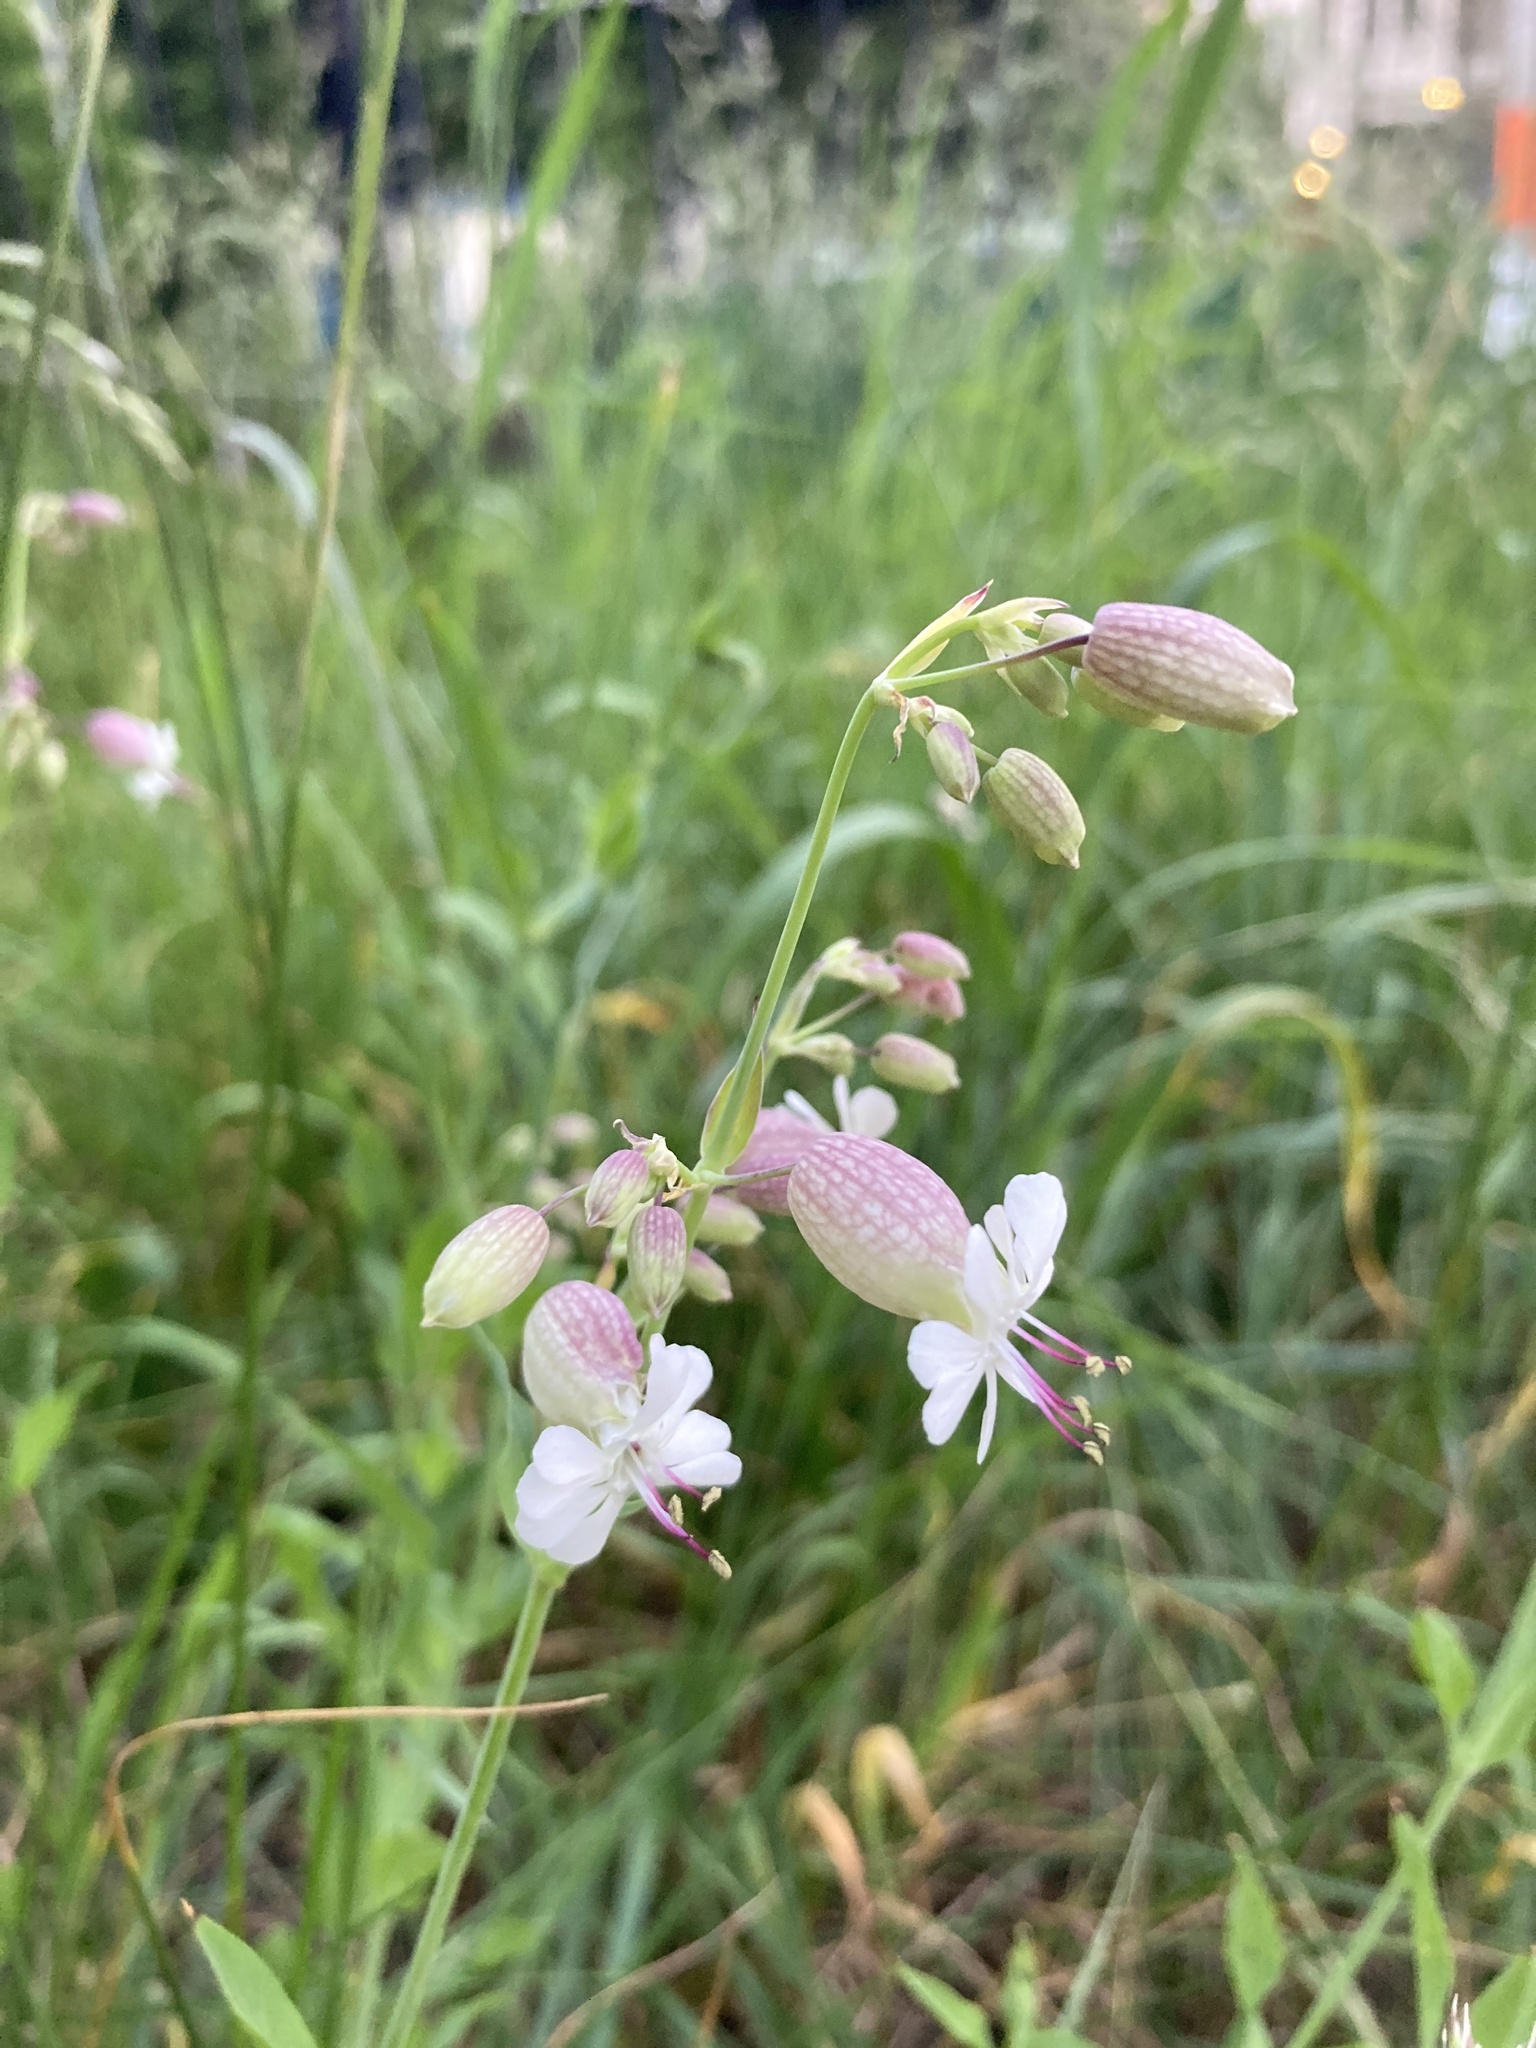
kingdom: Plantae
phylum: Tracheophyta
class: Magnoliopsida
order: Caryophyllales
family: Caryophyllaceae
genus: Silene
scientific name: Silene vulgaris
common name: Bladder campion
